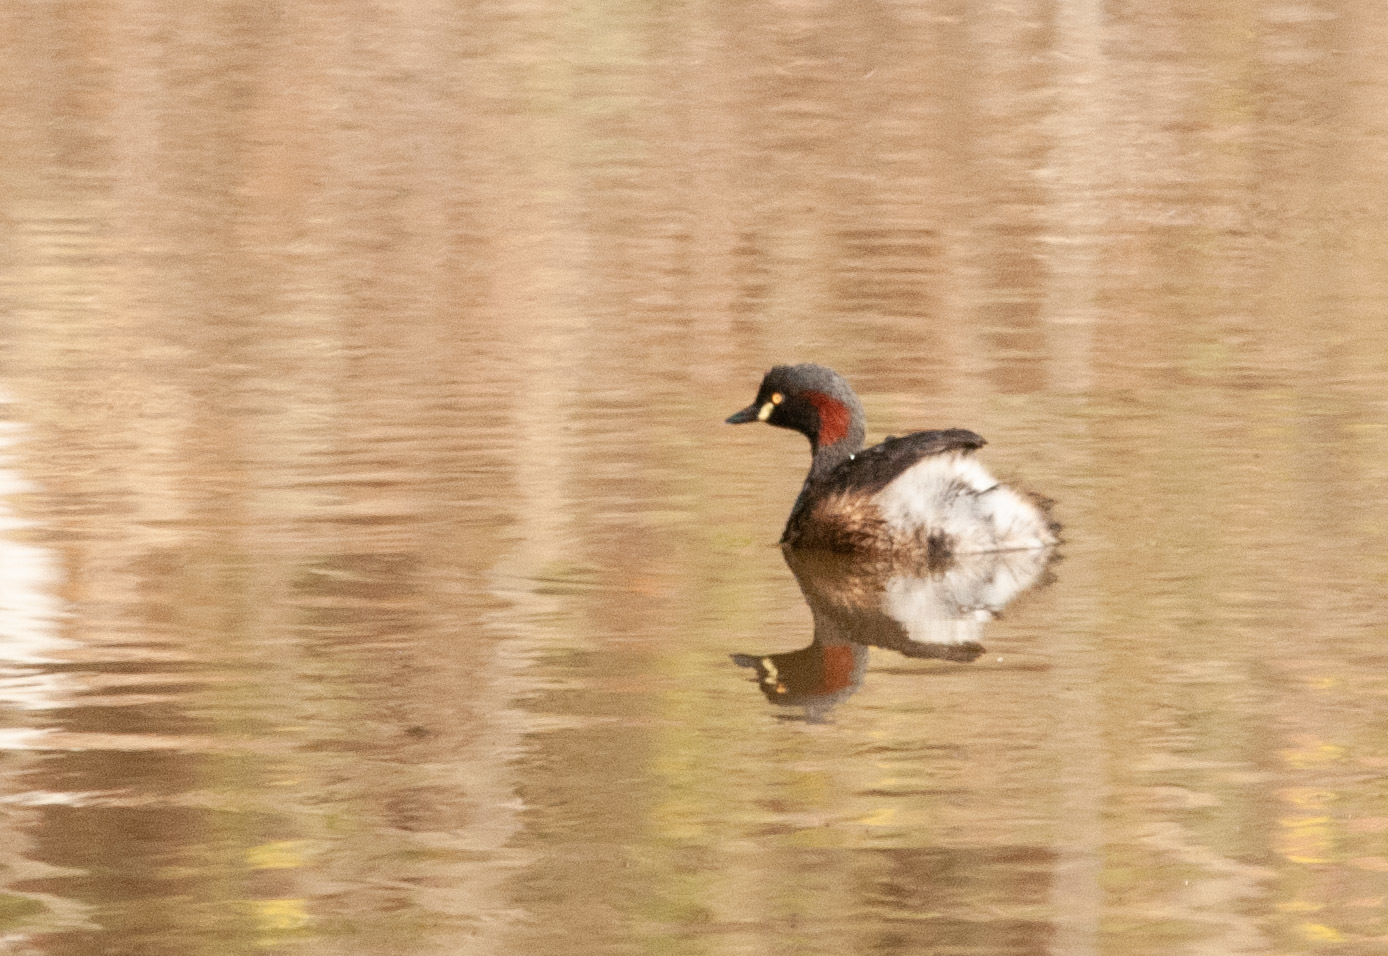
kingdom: Animalia
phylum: Chordata
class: Aves
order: Podicipediformes
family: Podicipedidae
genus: Tachybaptus
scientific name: Tachybaptus novaehollandiae
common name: Australasian grebe
